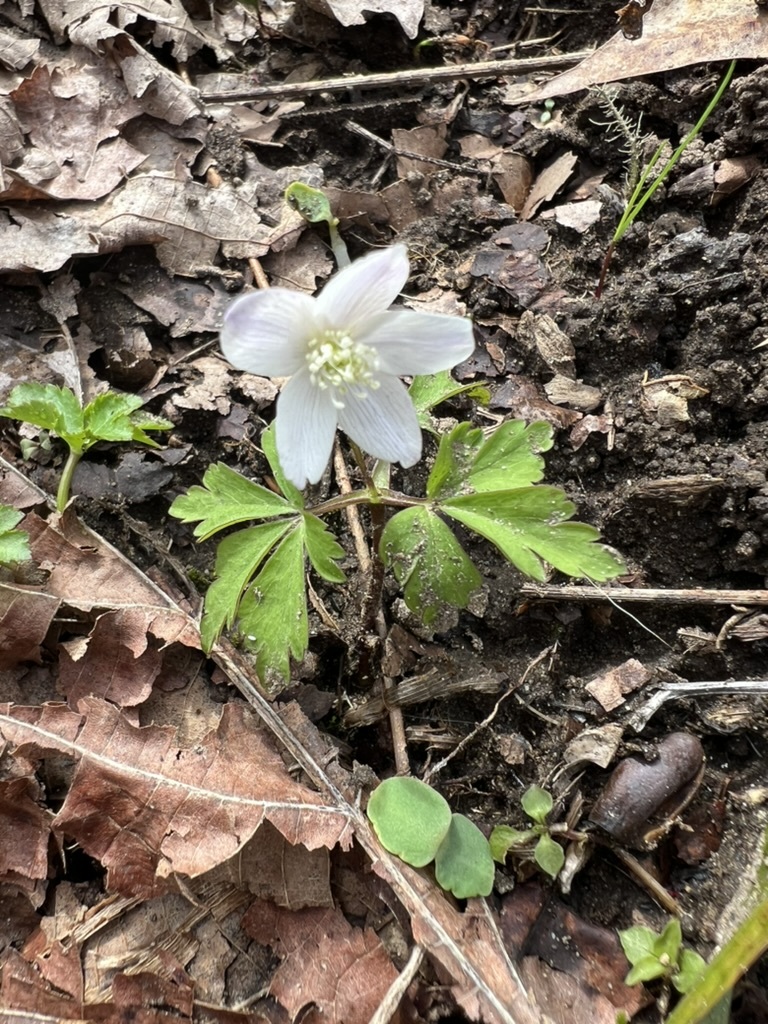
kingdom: Plantae
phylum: Tracheophyta
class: Magnoliopsida
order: Ranunculales
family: Ranunculaceae
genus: Anemone
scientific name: Anemone quinquefolia
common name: Wood anemone
